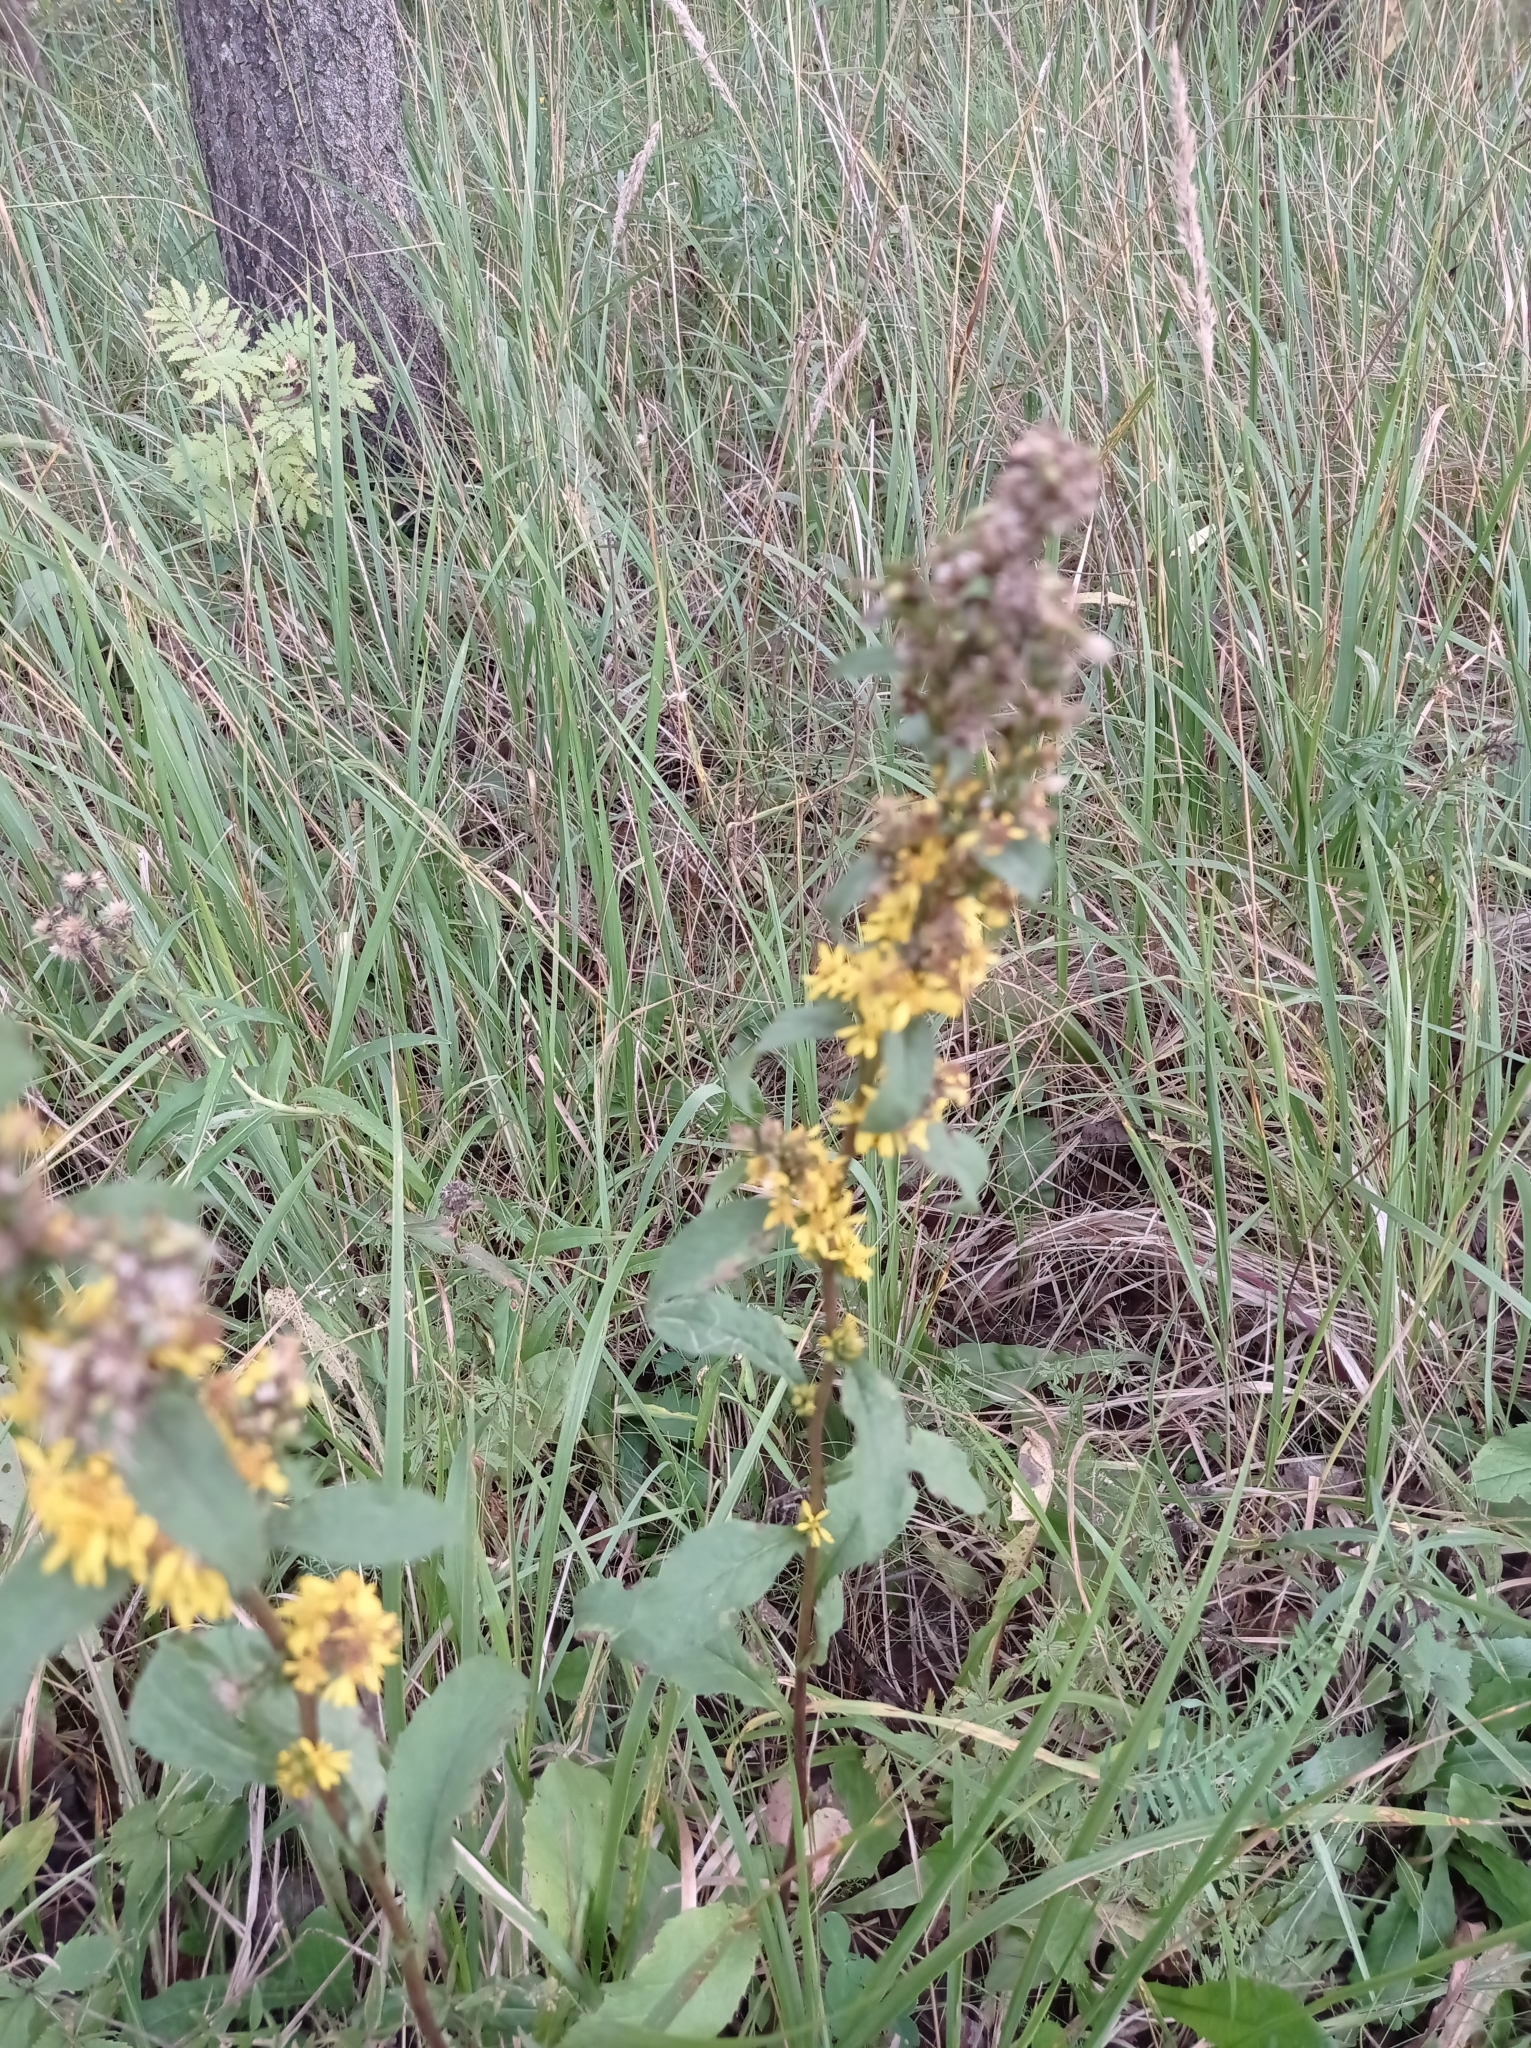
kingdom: Plantae
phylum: Tracheophyta
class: Magnoliopsida
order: Asterales
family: Asteraceae
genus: Solidago
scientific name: Solidago virgaurea
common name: Goldenrod
